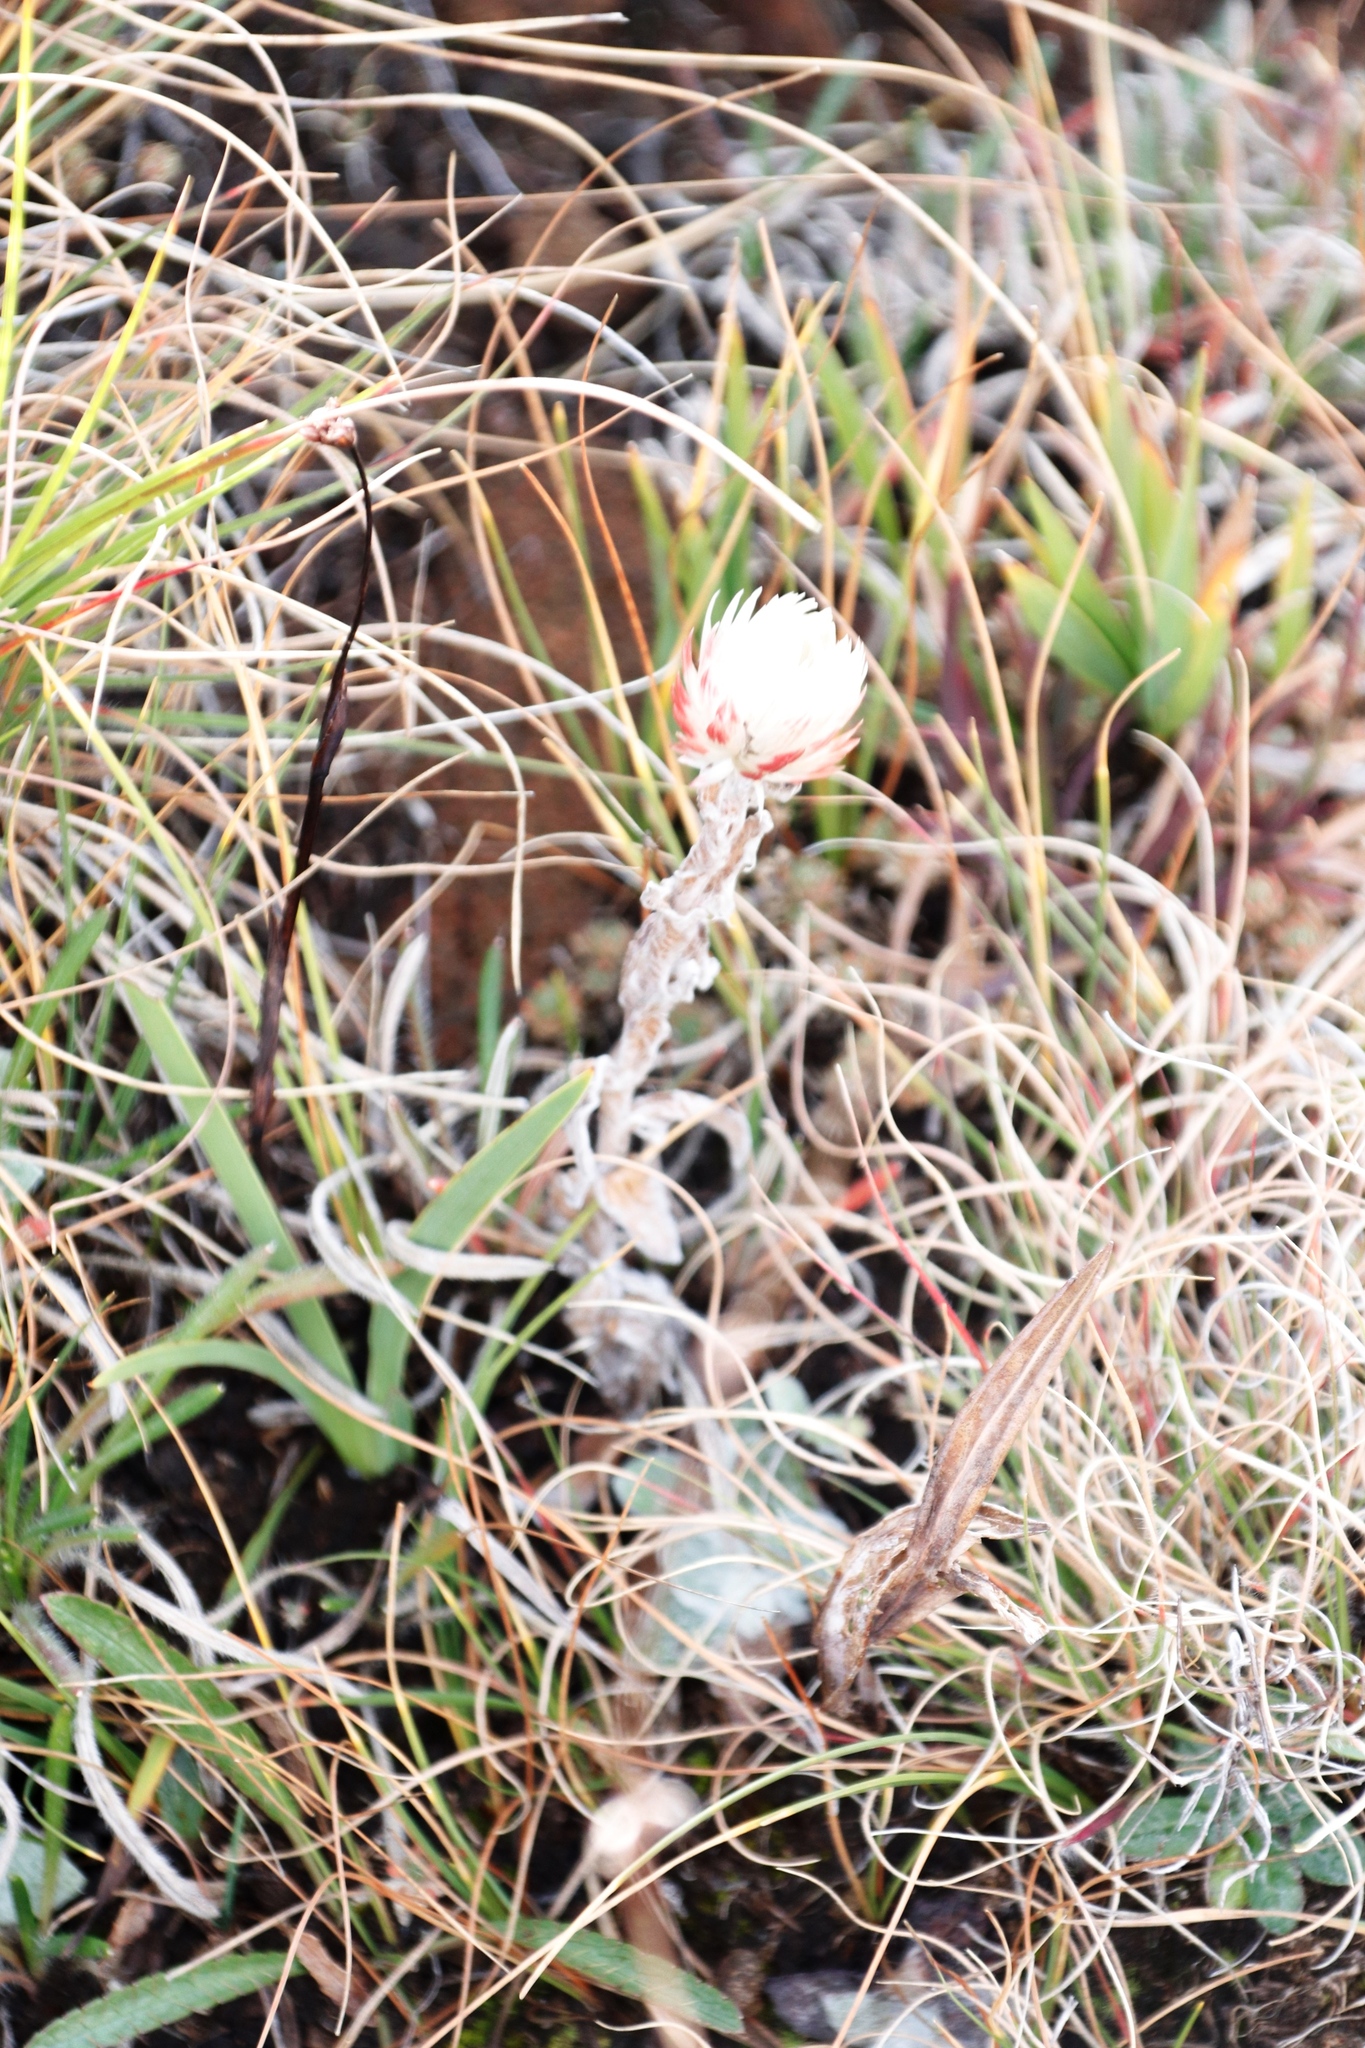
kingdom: Plantae
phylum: Tracheophyta
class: Magnoliopsida
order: Asterales
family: Asteraceae
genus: Helichrysum
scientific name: Helichrysum adenocarpum
